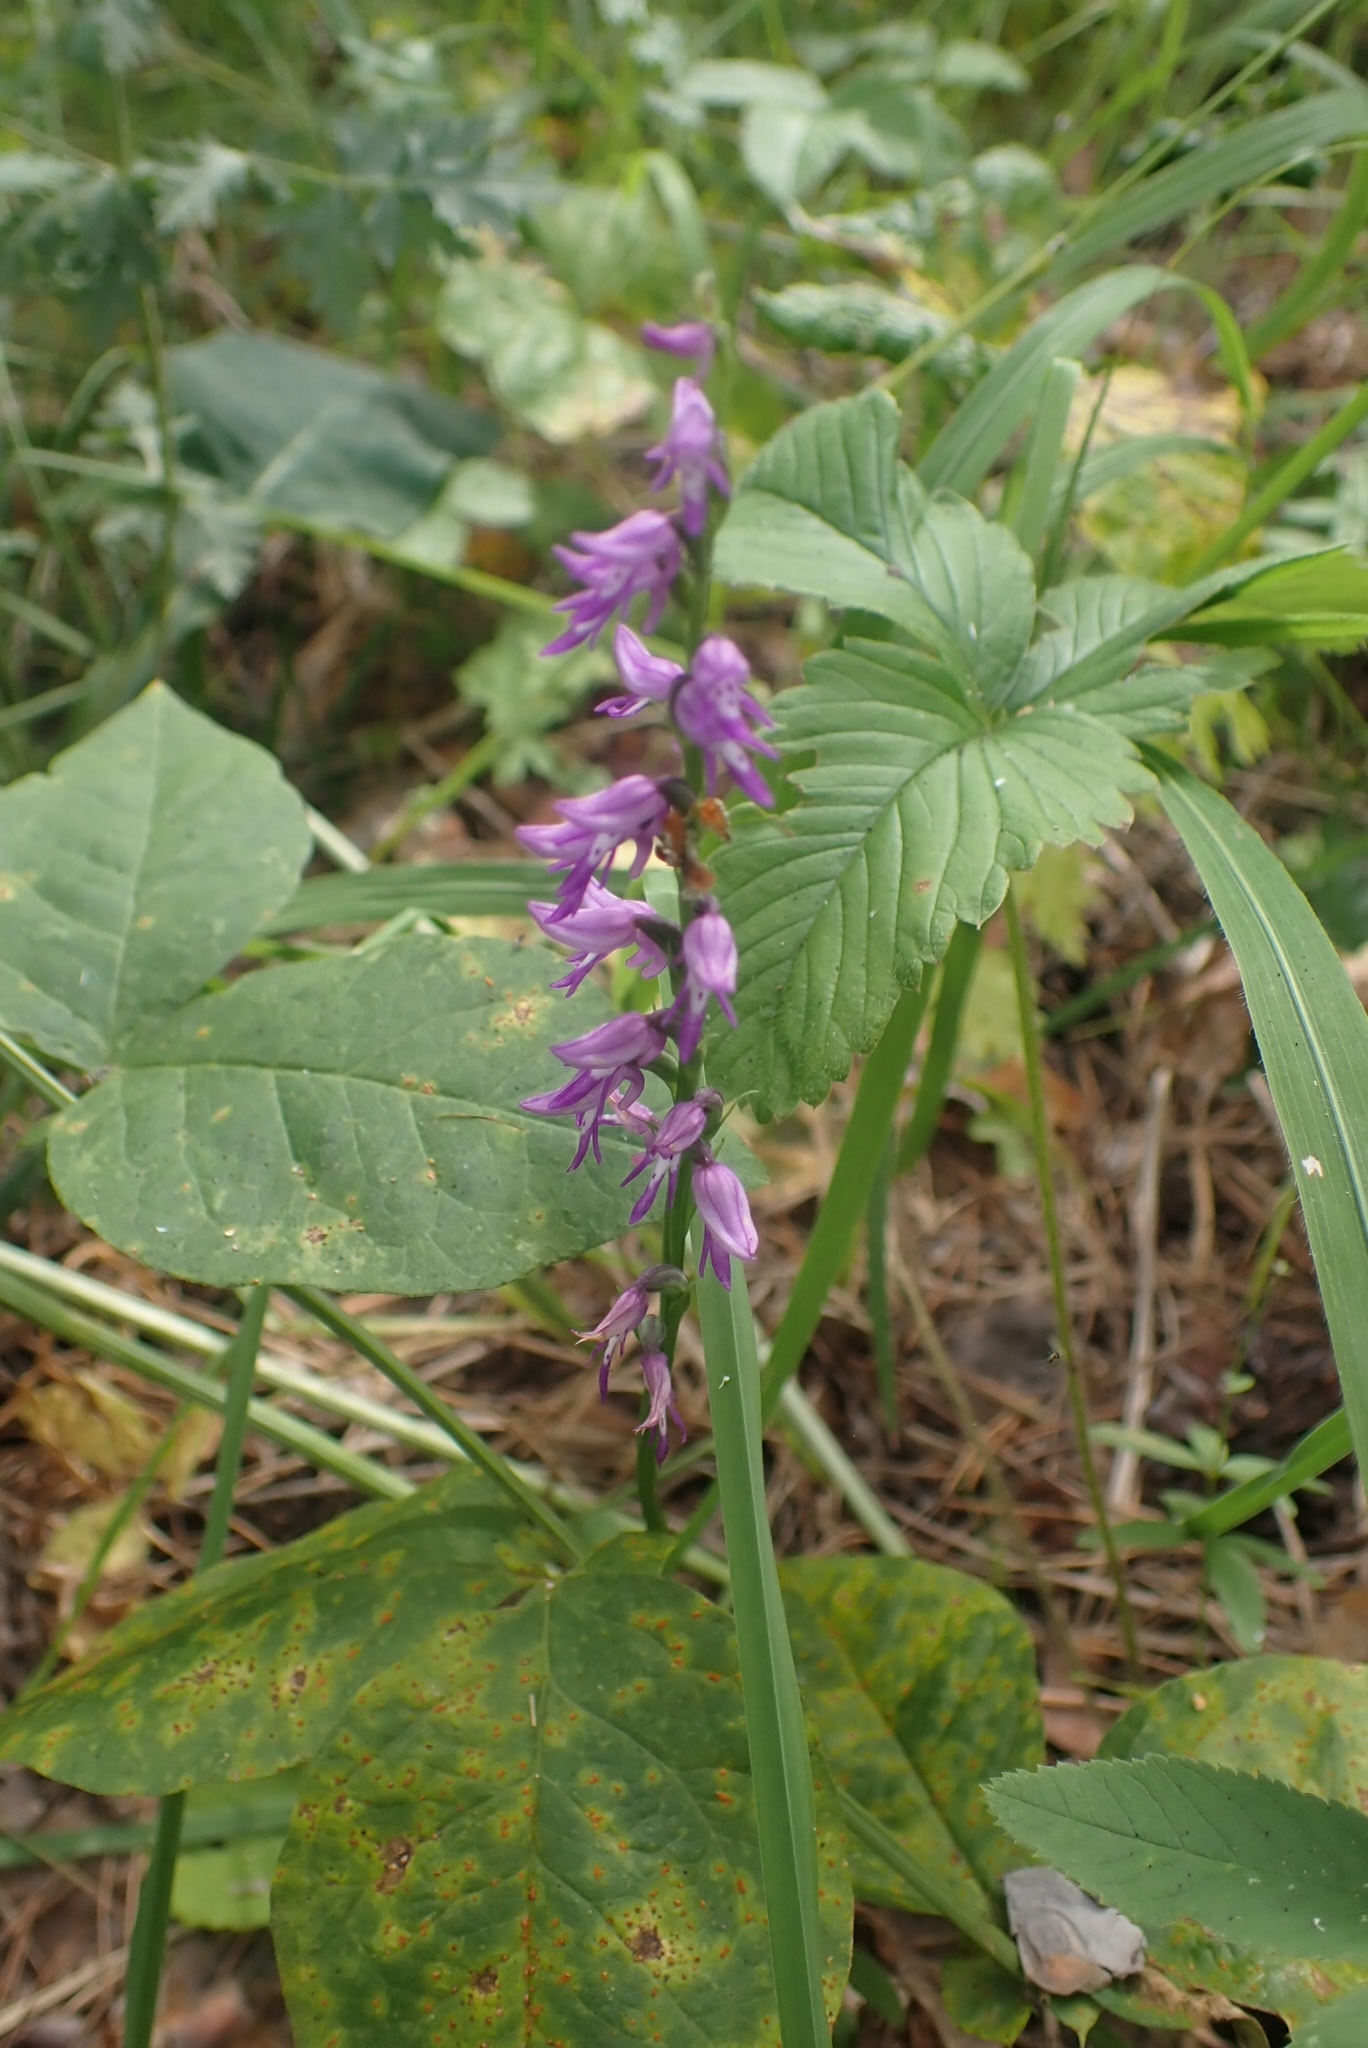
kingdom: Plantae
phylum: Tracheophyta
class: Liliopsida
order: Asparagales
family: Orchidaceae
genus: Hemipilia
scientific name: Hemipilia cucullata
